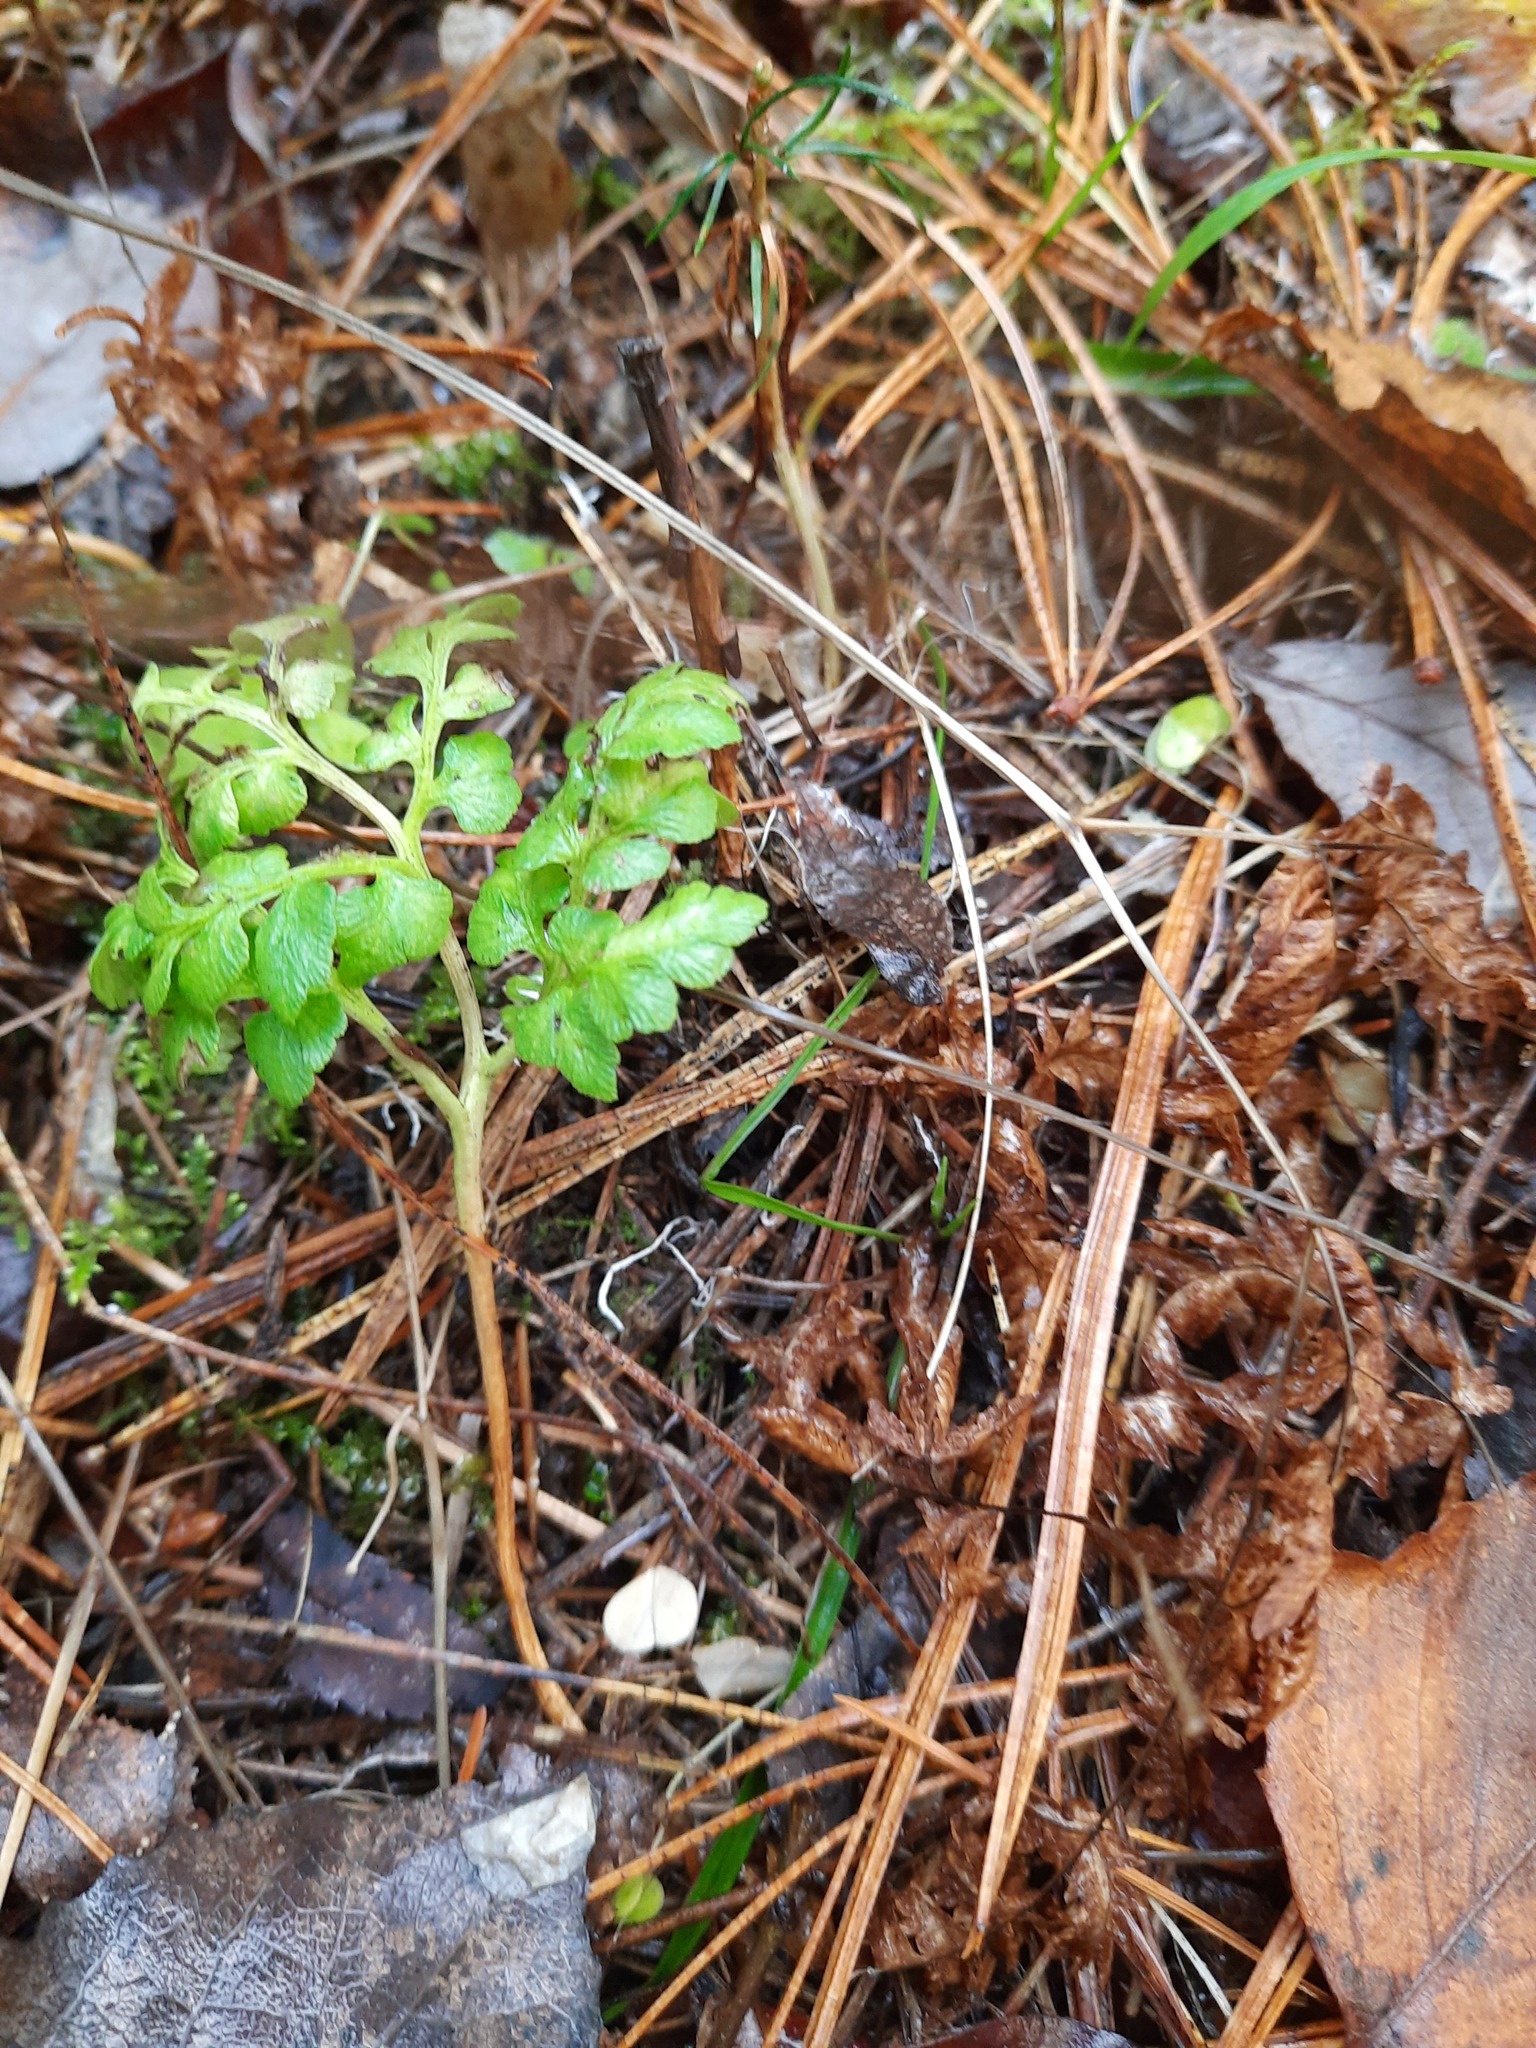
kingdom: Plantae
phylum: Tracheophyta
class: Polypodiopsida
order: Ophioglossales
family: Ophioglossaceae
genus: Sceptridium
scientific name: Sceptridium multifidum
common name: Leathery grape fern
